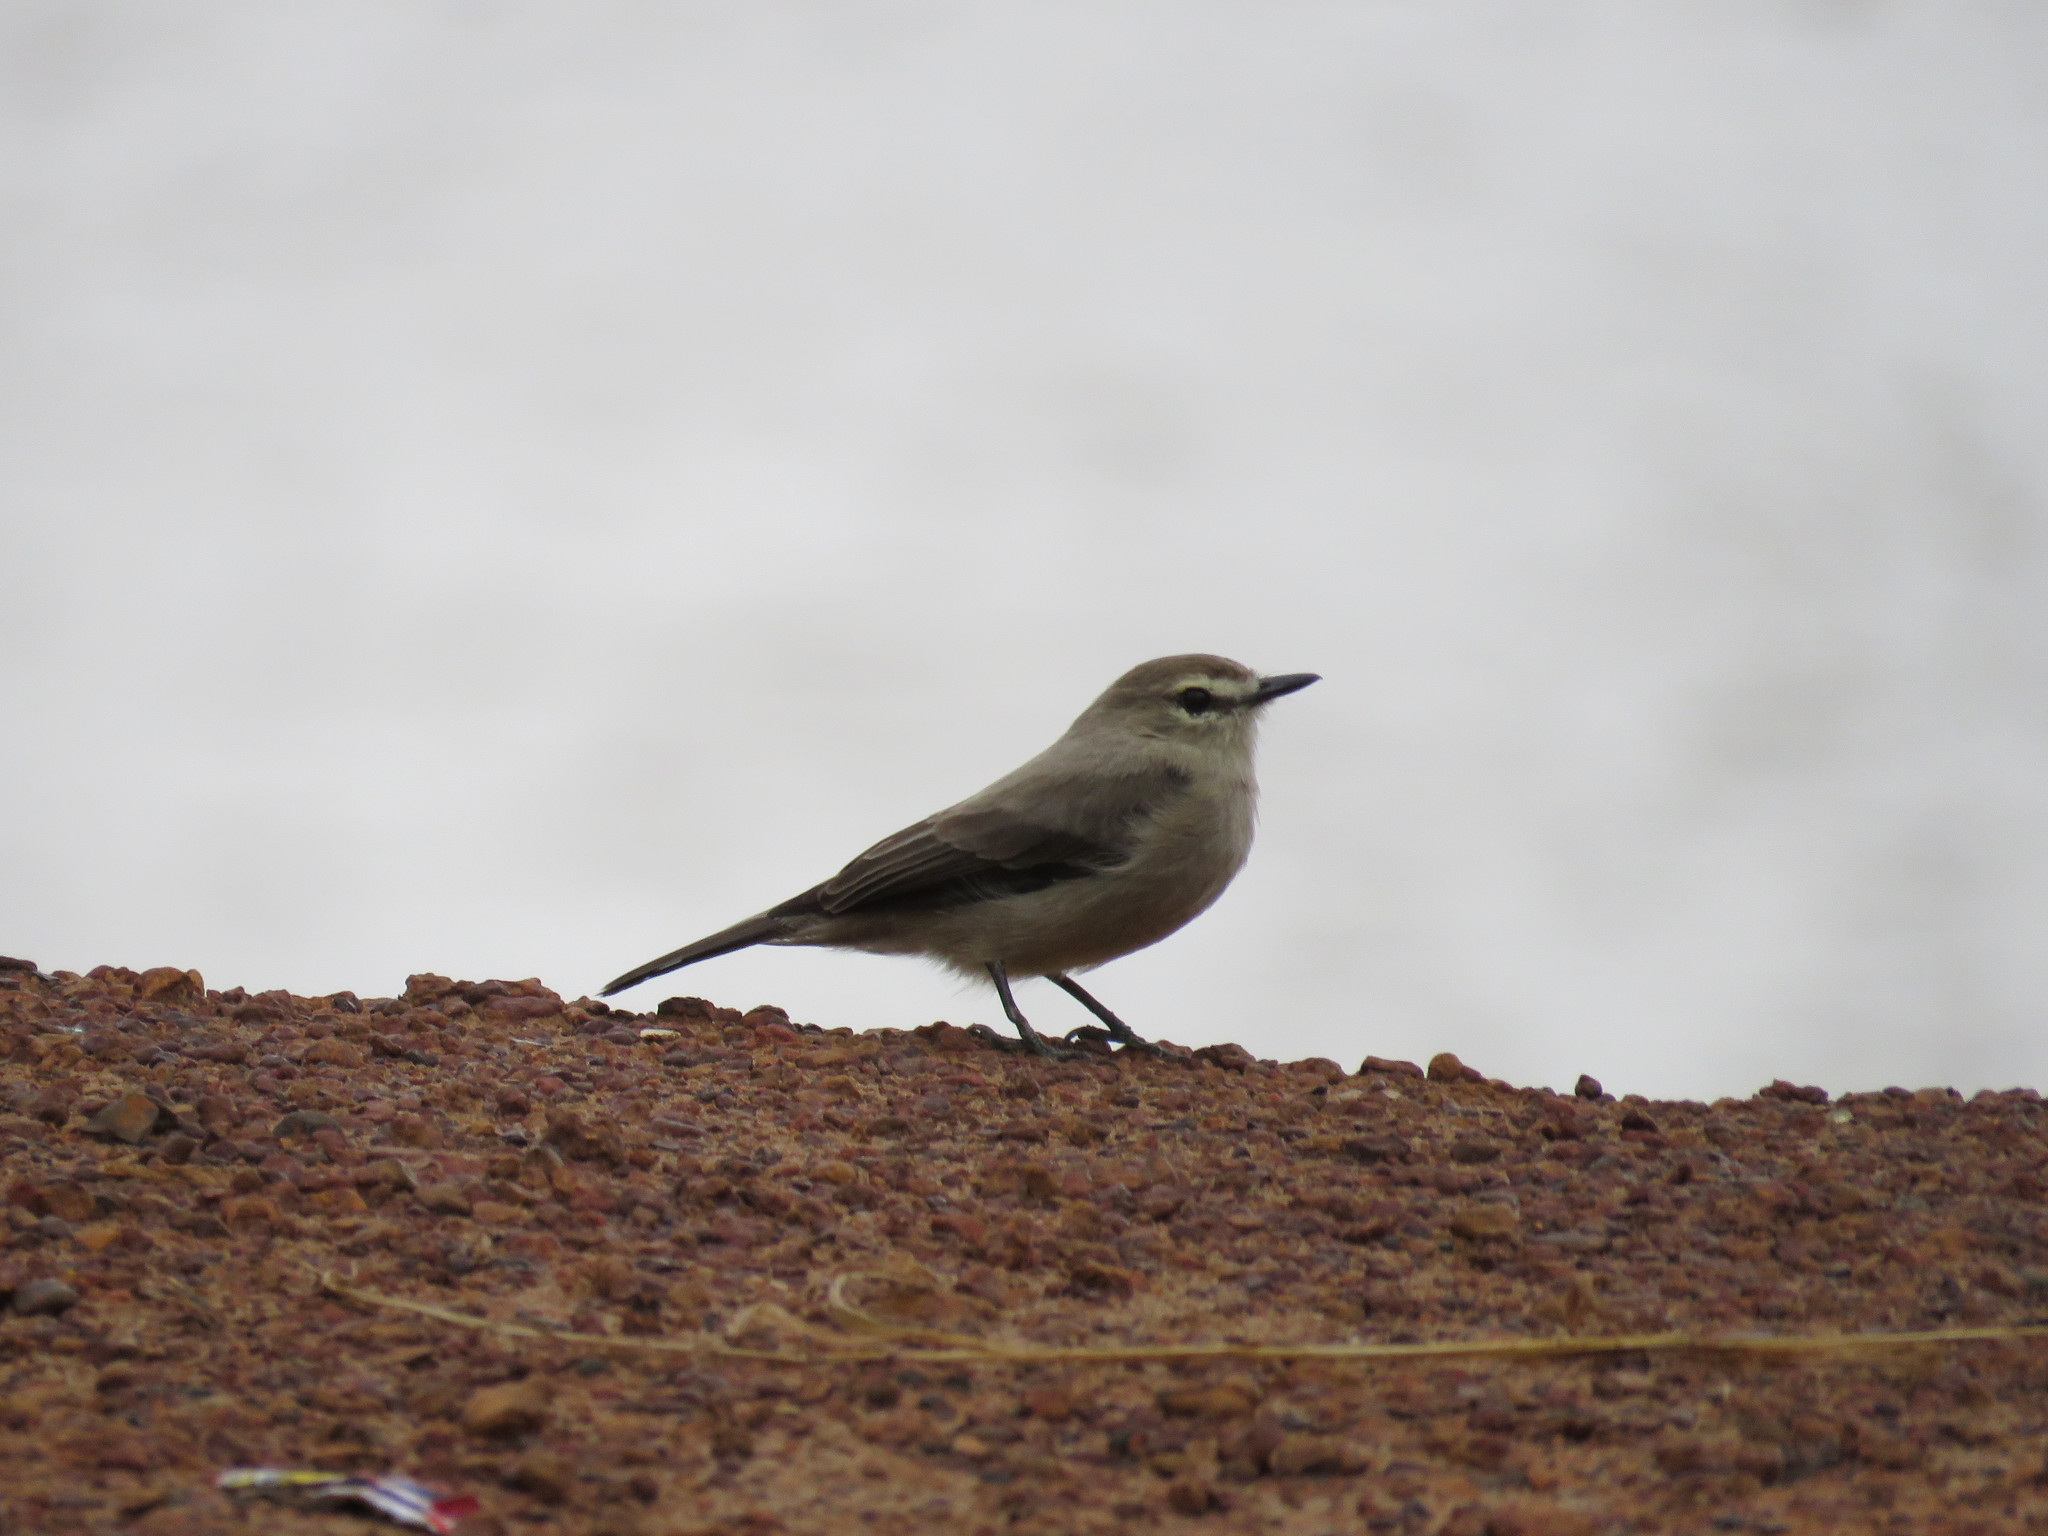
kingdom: Animalia
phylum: Chordata
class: Aves
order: Passeriformes
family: Tyrannidae
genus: Ochthornis
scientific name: Ochthornis littoralis
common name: Drab water tyrant
